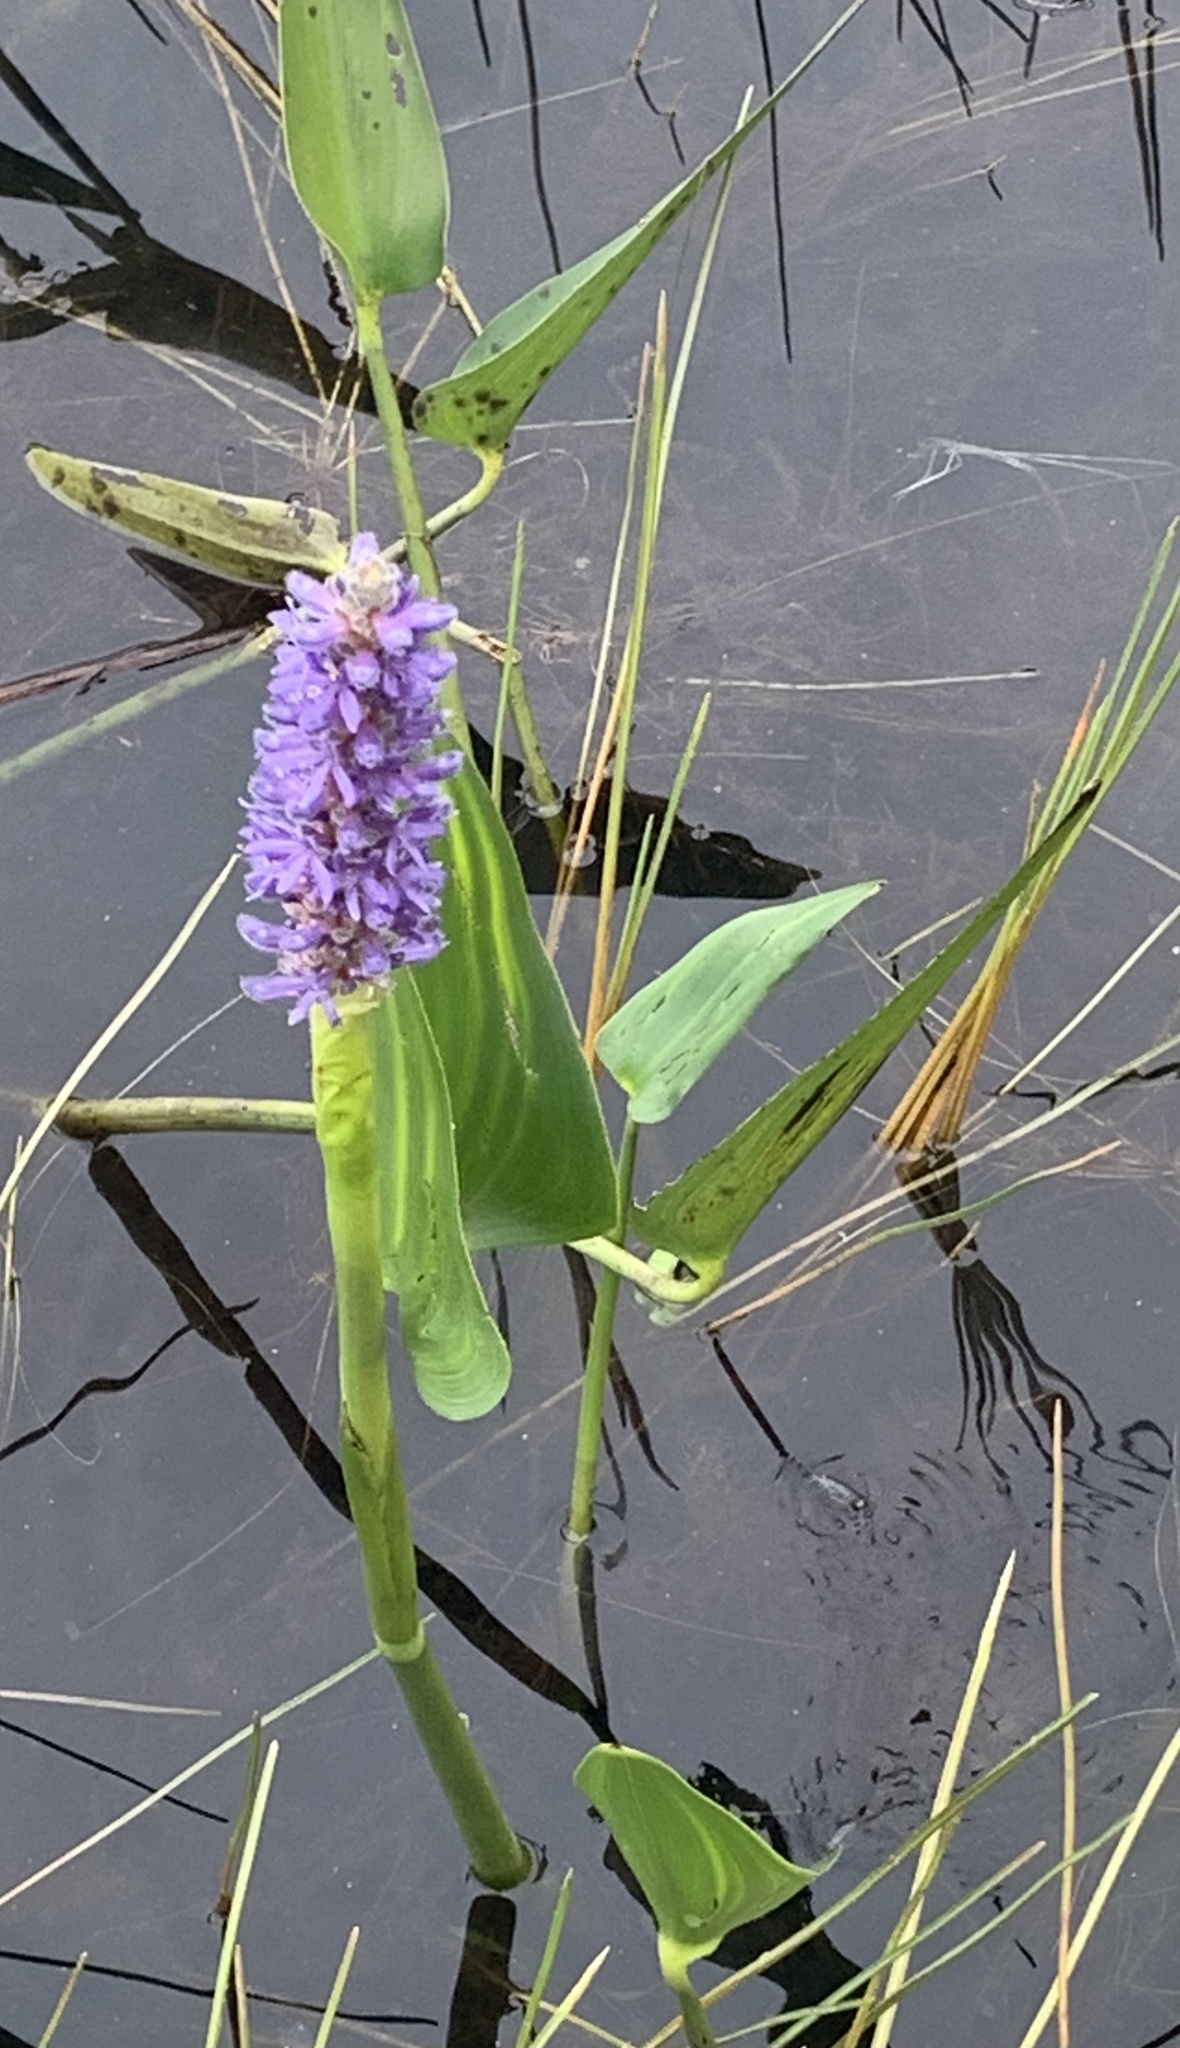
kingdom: Plantae
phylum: Tracheophyta
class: Liliopsida
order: Commelinales
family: Pontederiaceae
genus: Pontederia
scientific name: Pontederia cordata
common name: Pickerelweed
